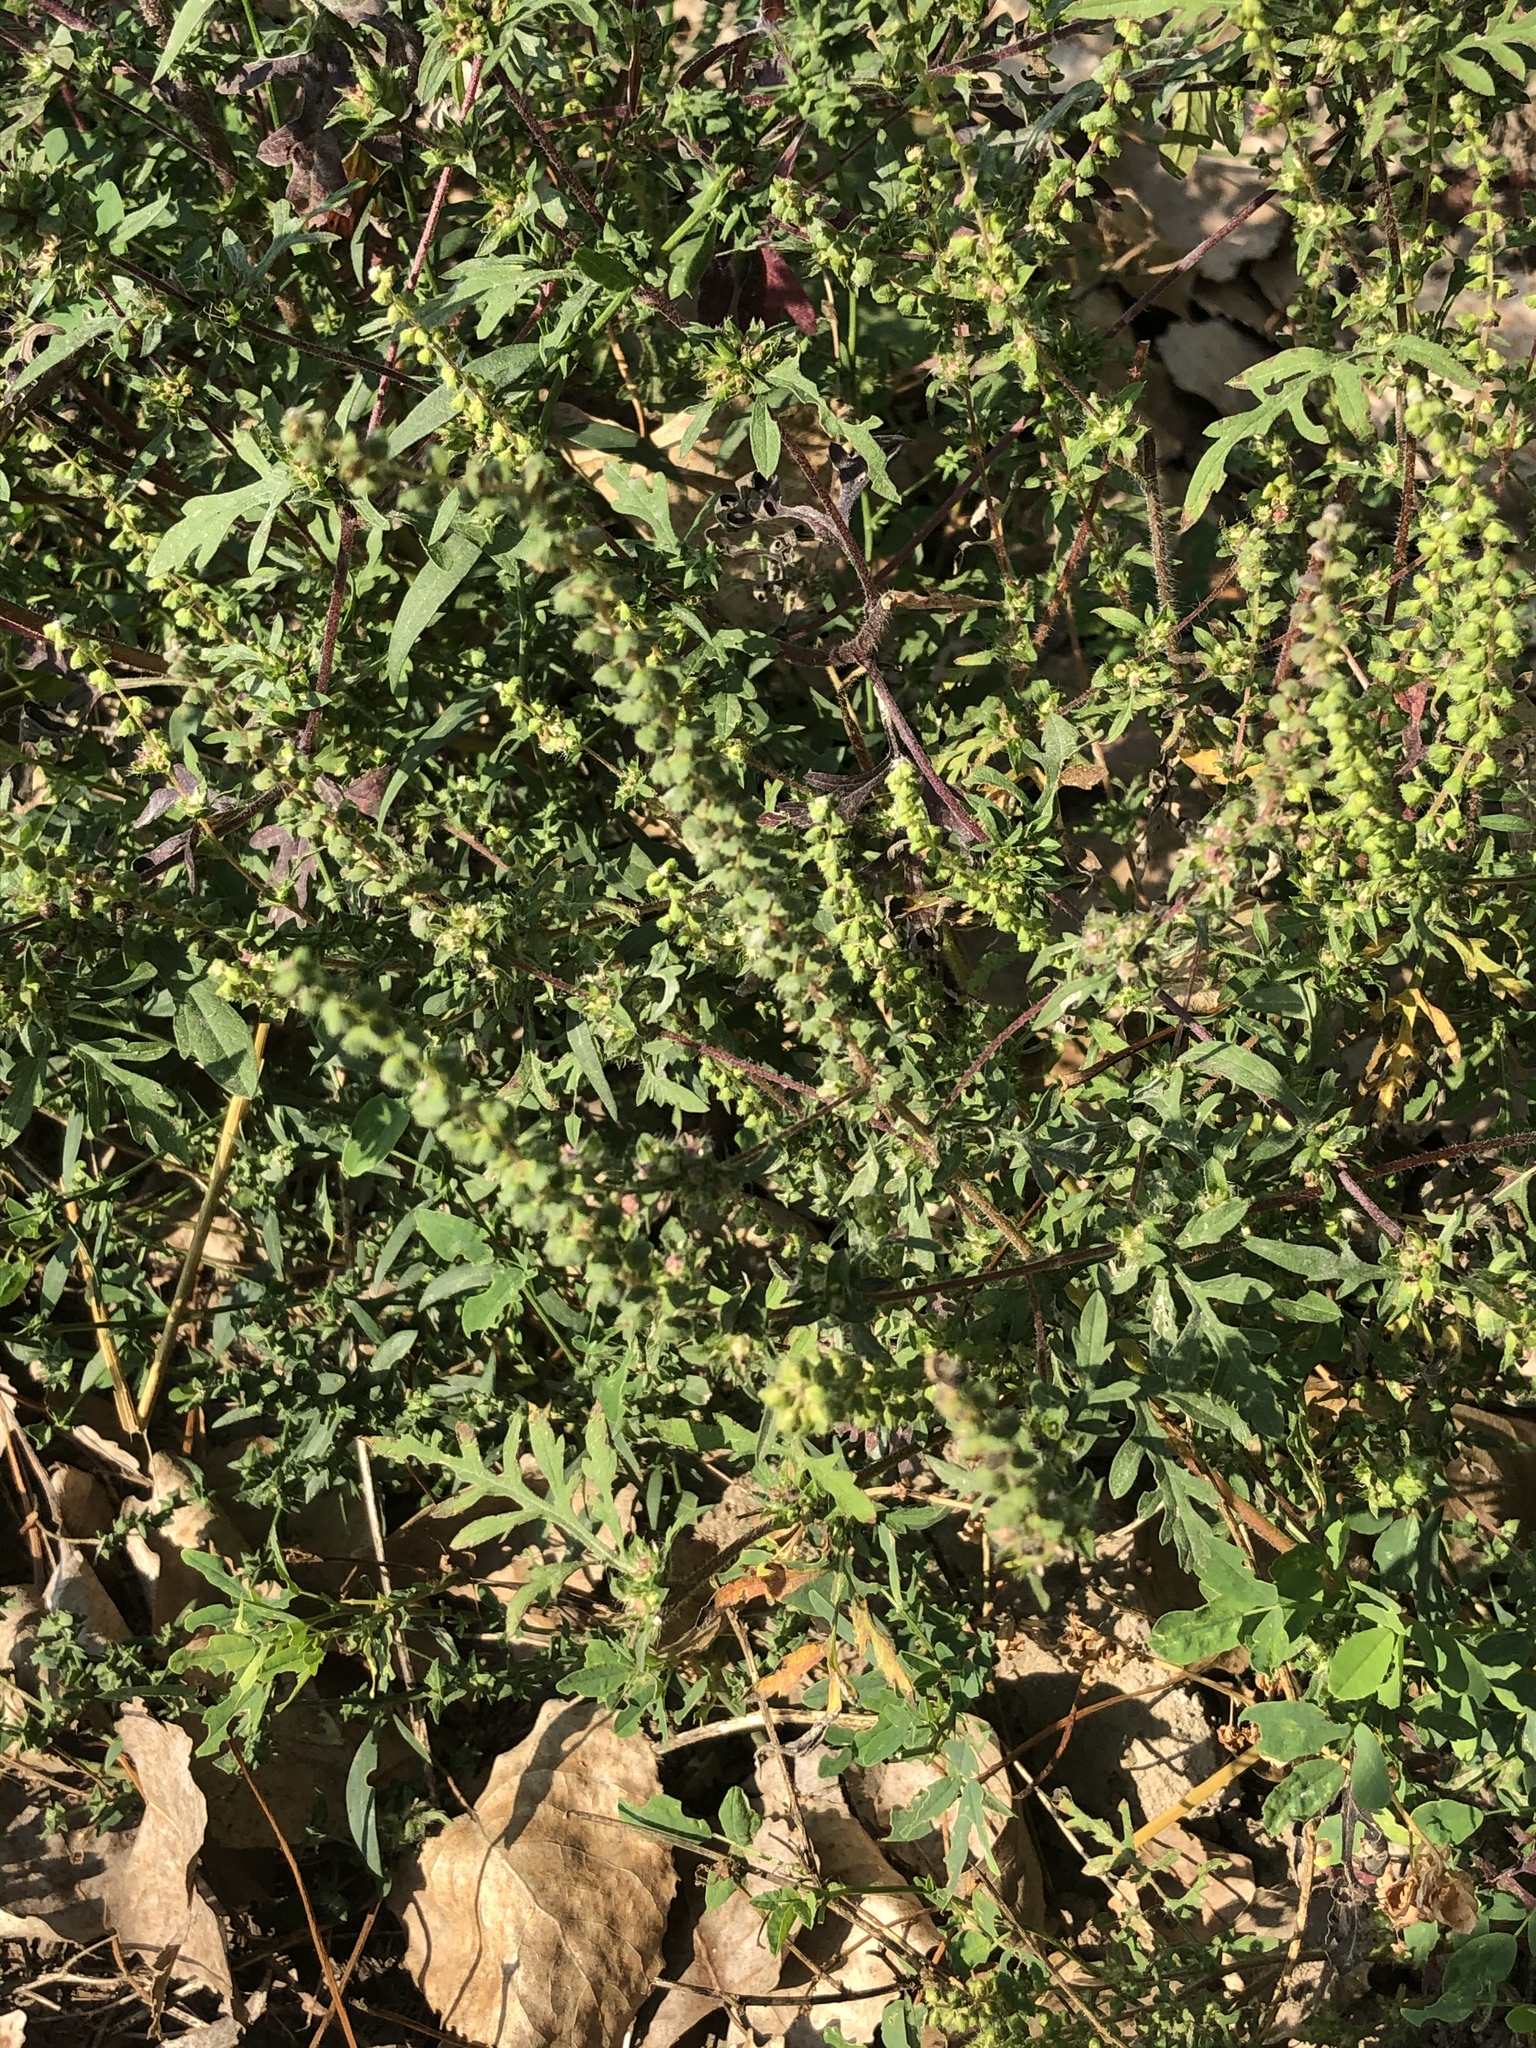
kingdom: Plantae
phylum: Tracheophyta
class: Magnoliopsida
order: Asterales
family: Asteraceae
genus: Ambrosia
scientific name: Ambrosia artemisiifolia
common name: Annual ragweed
